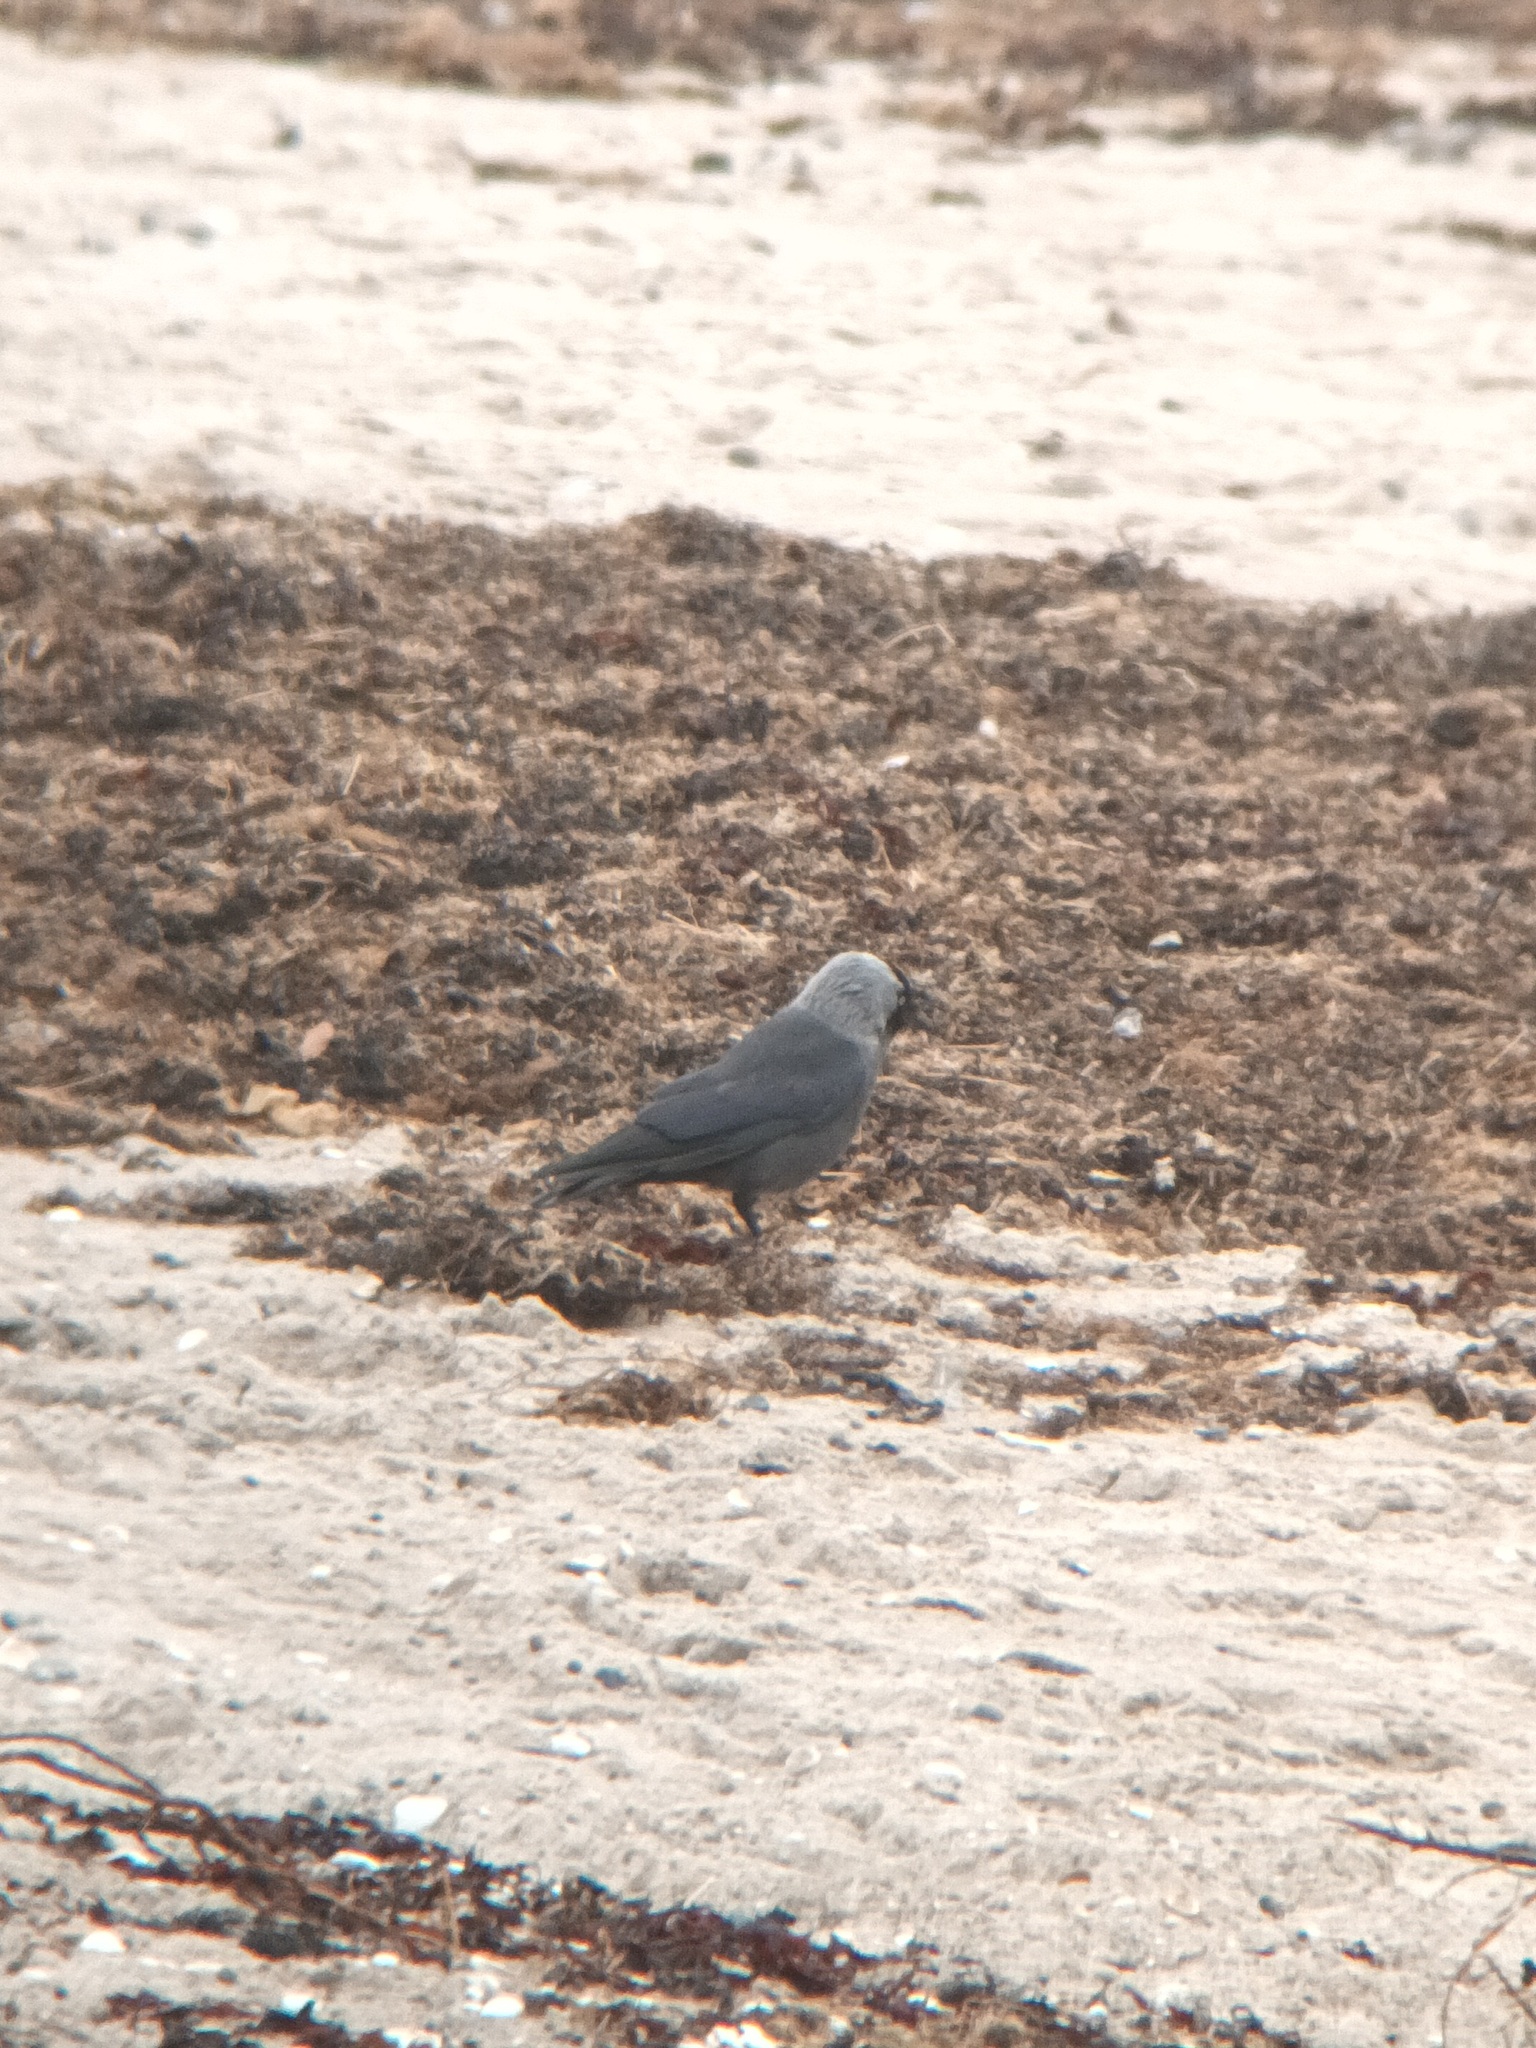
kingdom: Animalia
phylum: Chordata
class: Aves
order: Passeriformes
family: Corvidae
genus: Coloeus
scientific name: Coloeus monedula
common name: Western jackdaw
